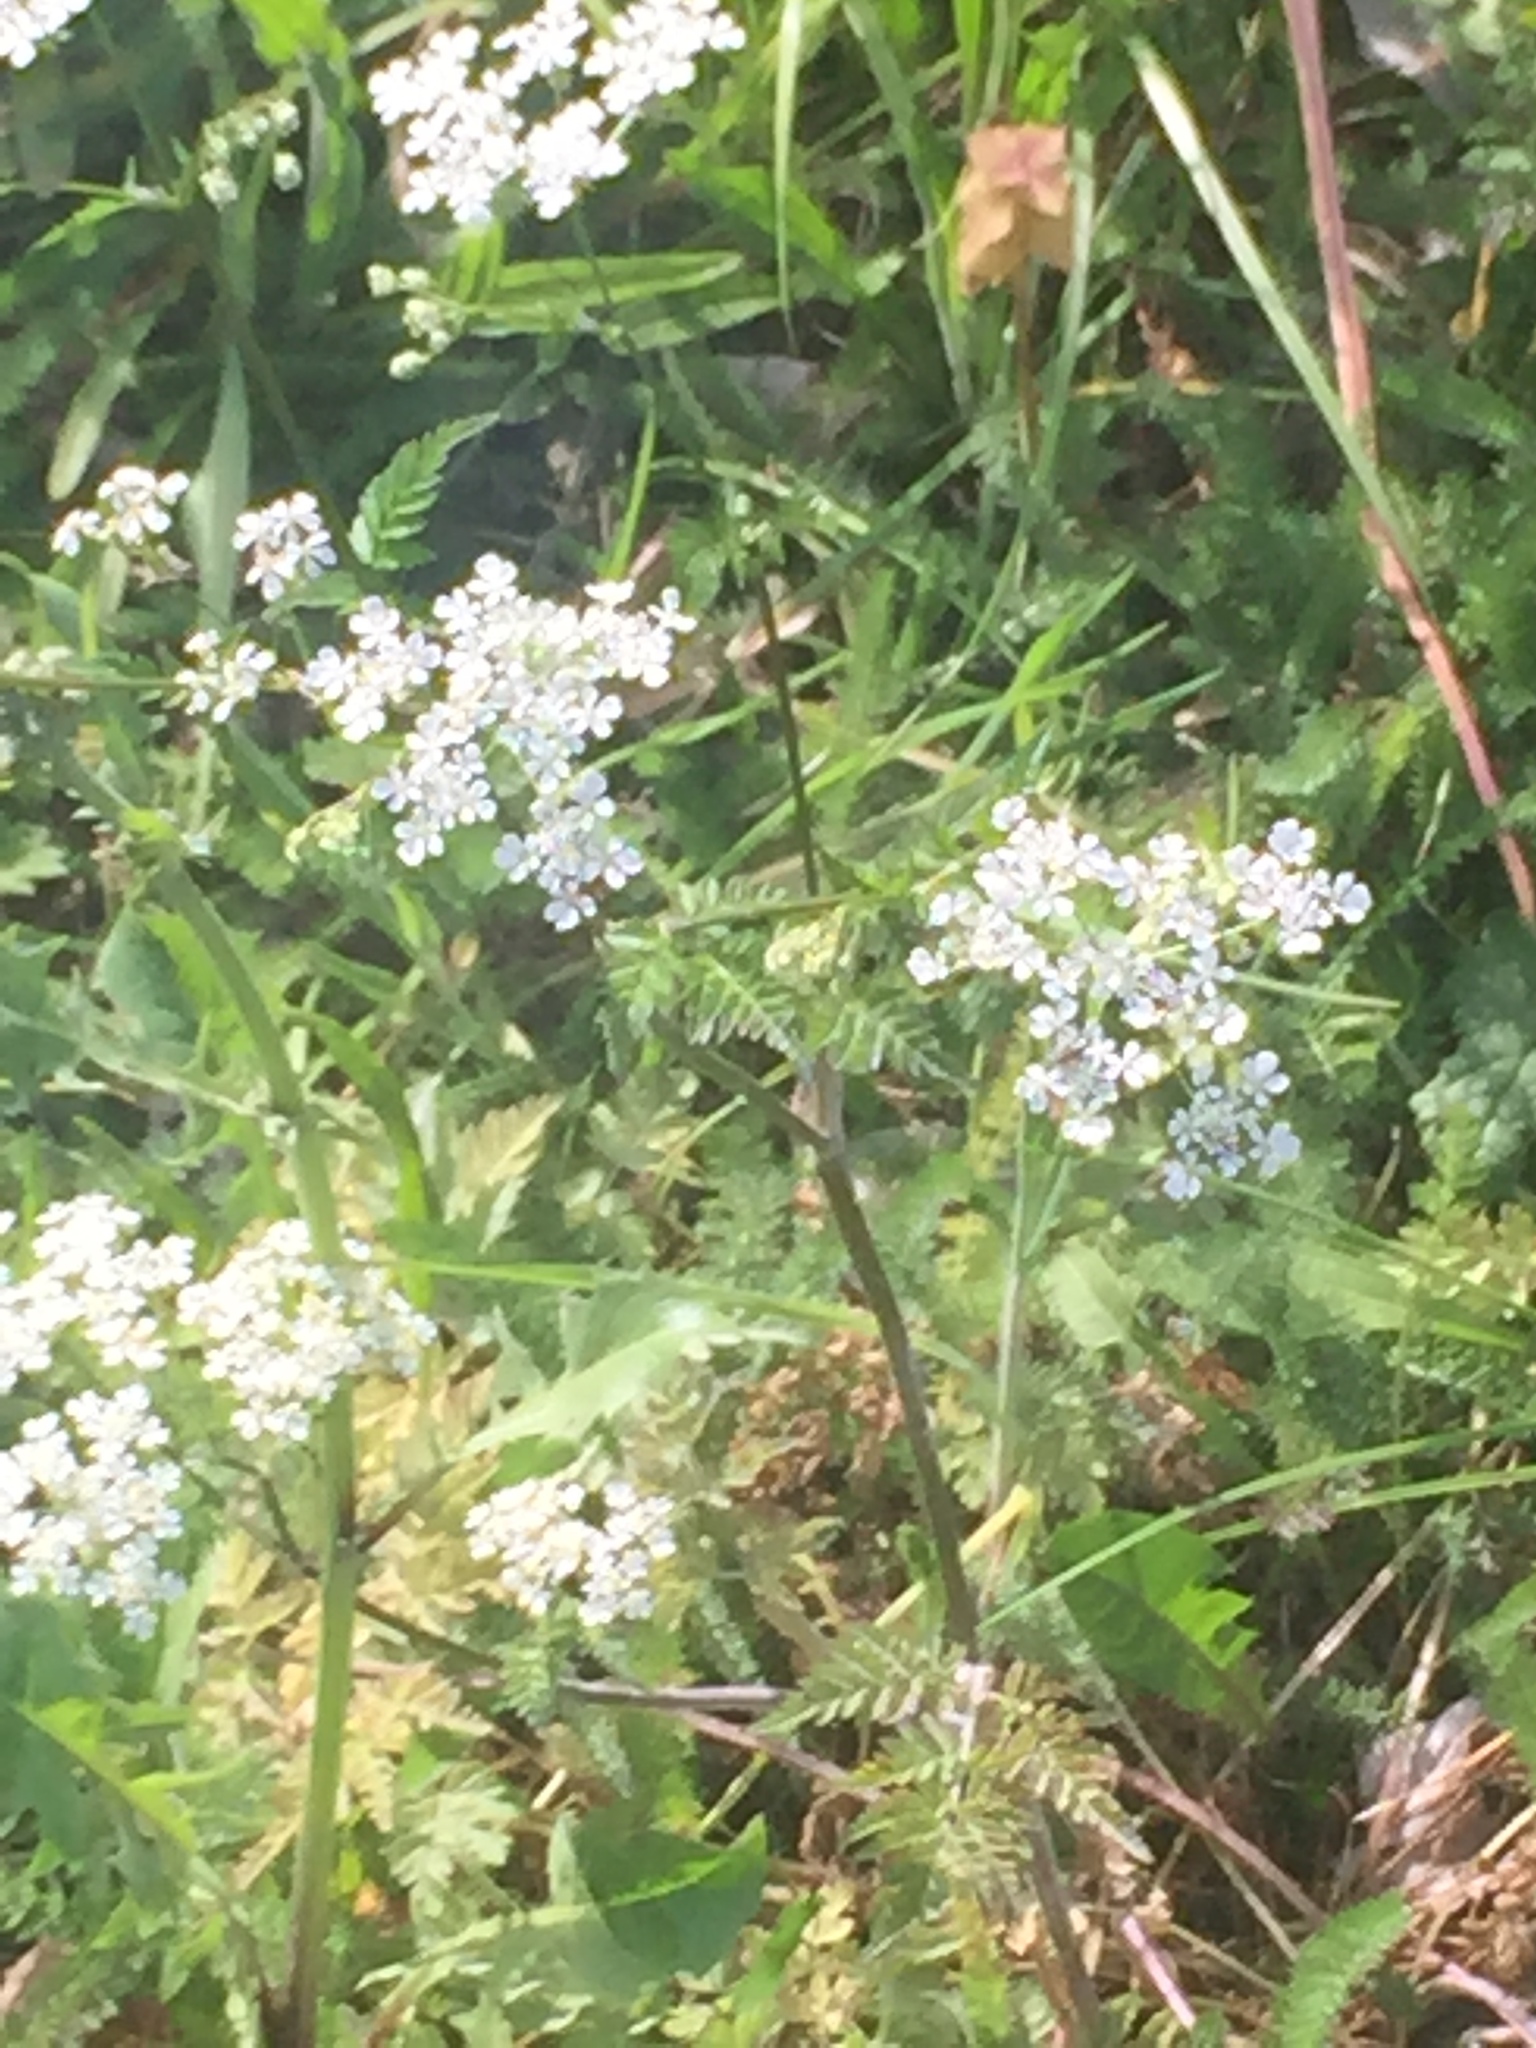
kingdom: Plantae
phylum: Tracheophyta
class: Magnoliopsida
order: Apiales
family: Apiaceae
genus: Anthriscus
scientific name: Anthriscus sylvestris
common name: Cow parsley
